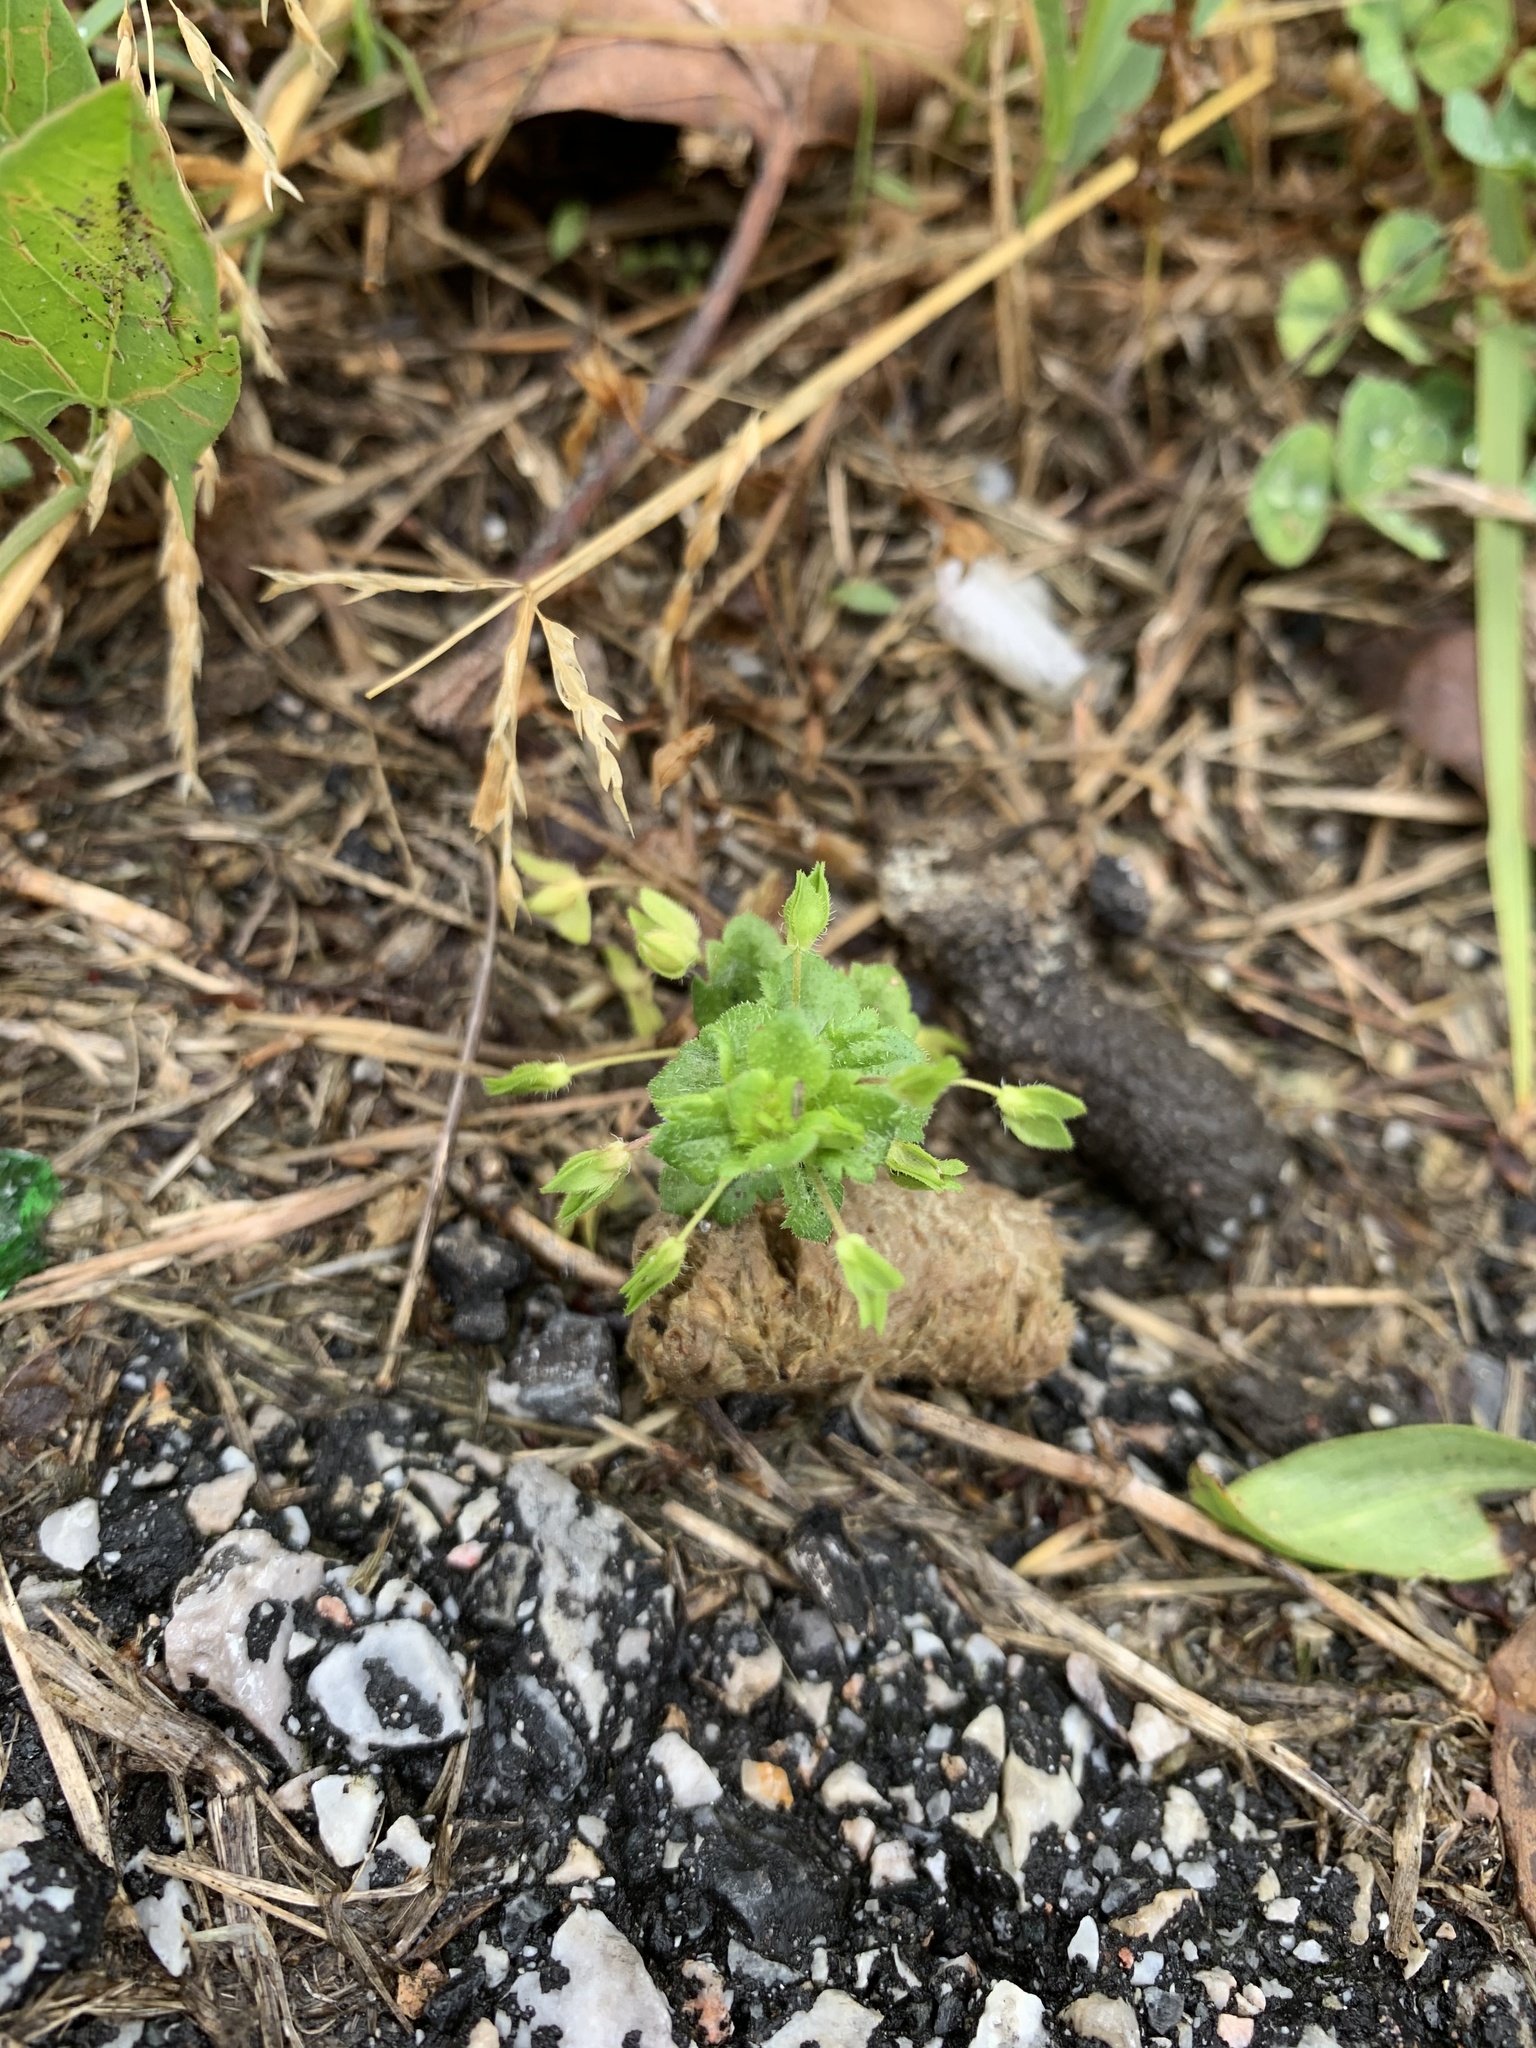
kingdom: Plantae
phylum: Tracheophyta
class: Magnoliopsida
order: Lamiales
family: Plantaginaceae
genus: Veronica
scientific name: Veronica persica
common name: Common field-speedwell
